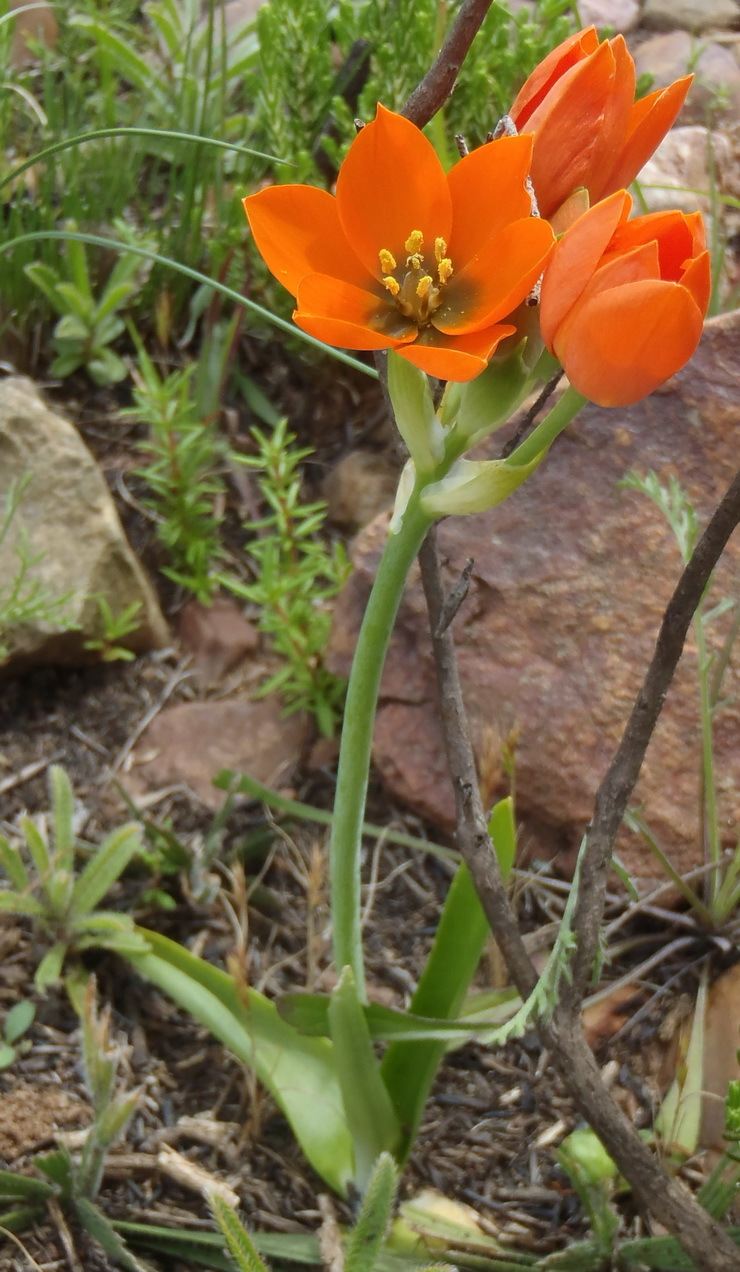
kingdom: Plantae
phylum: Tracheophyta
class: Liliopsida
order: Asparagales
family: Asparagaceae
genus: Ornithogalum
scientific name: Ornithogalum dubium
